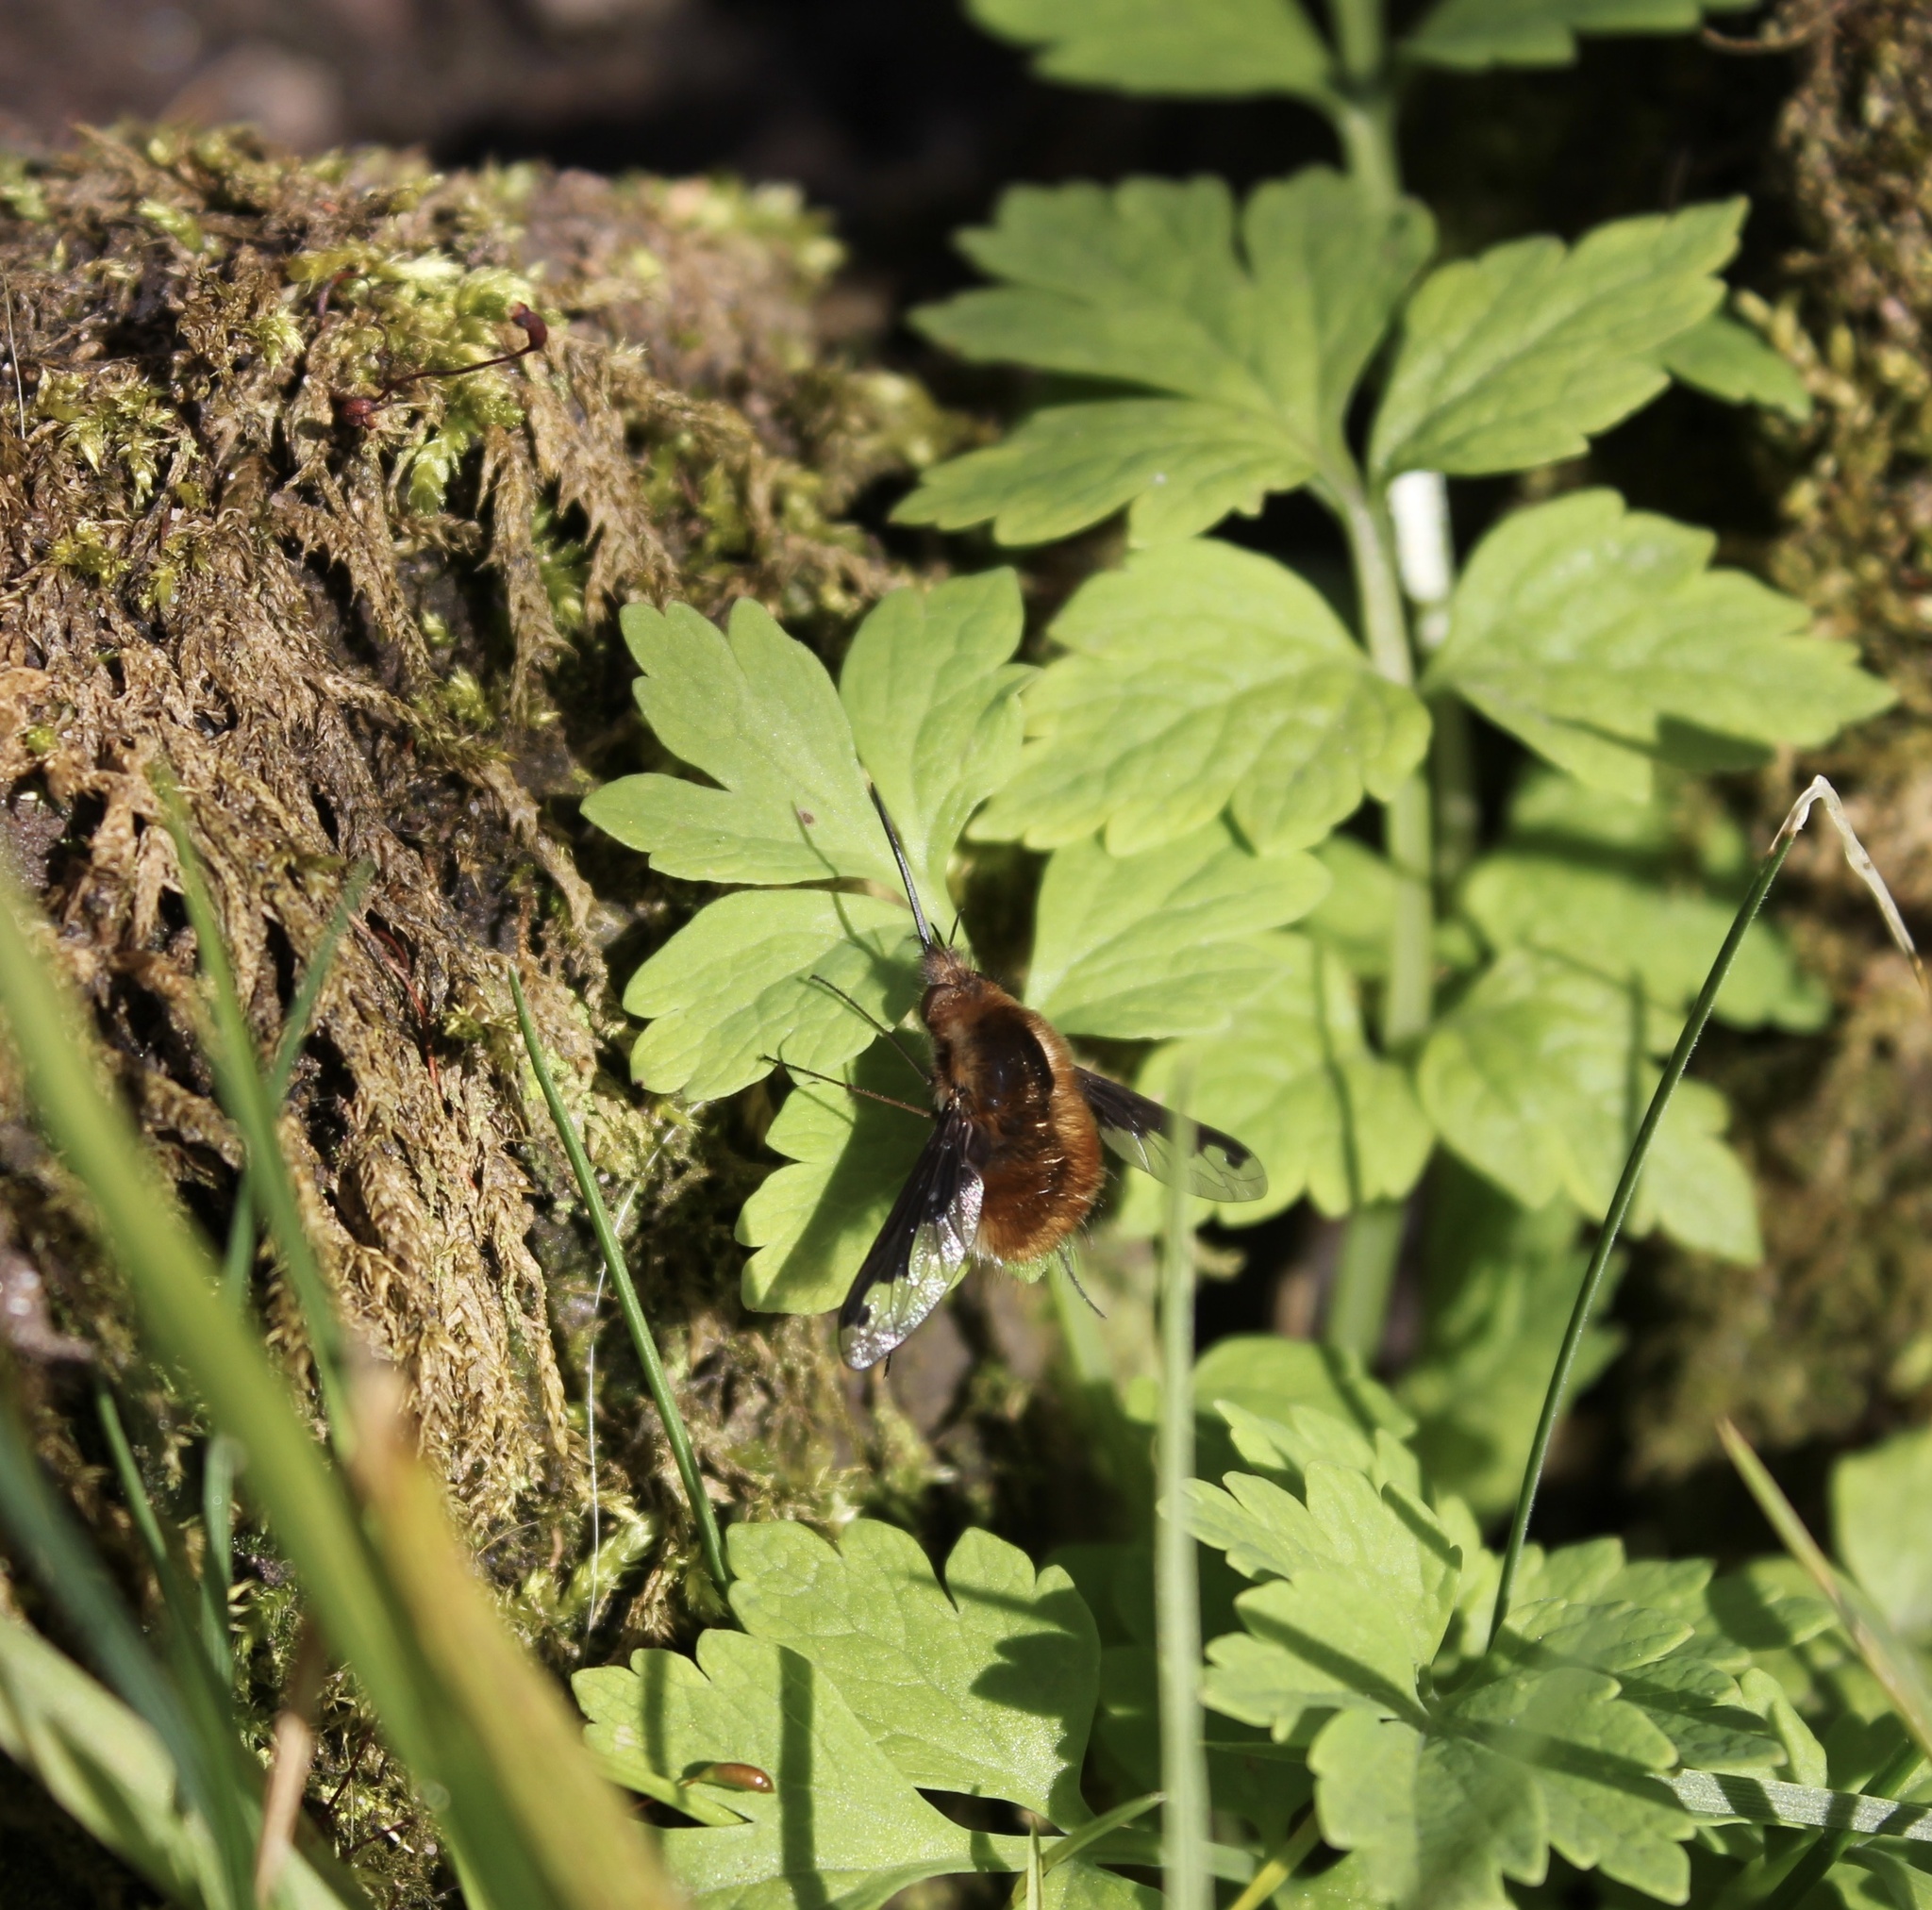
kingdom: Animalia
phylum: Arthropoda
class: Insecta
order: Diptera
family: Bombyliidae
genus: Bombylius
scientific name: Bombylius major
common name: Bee fly
